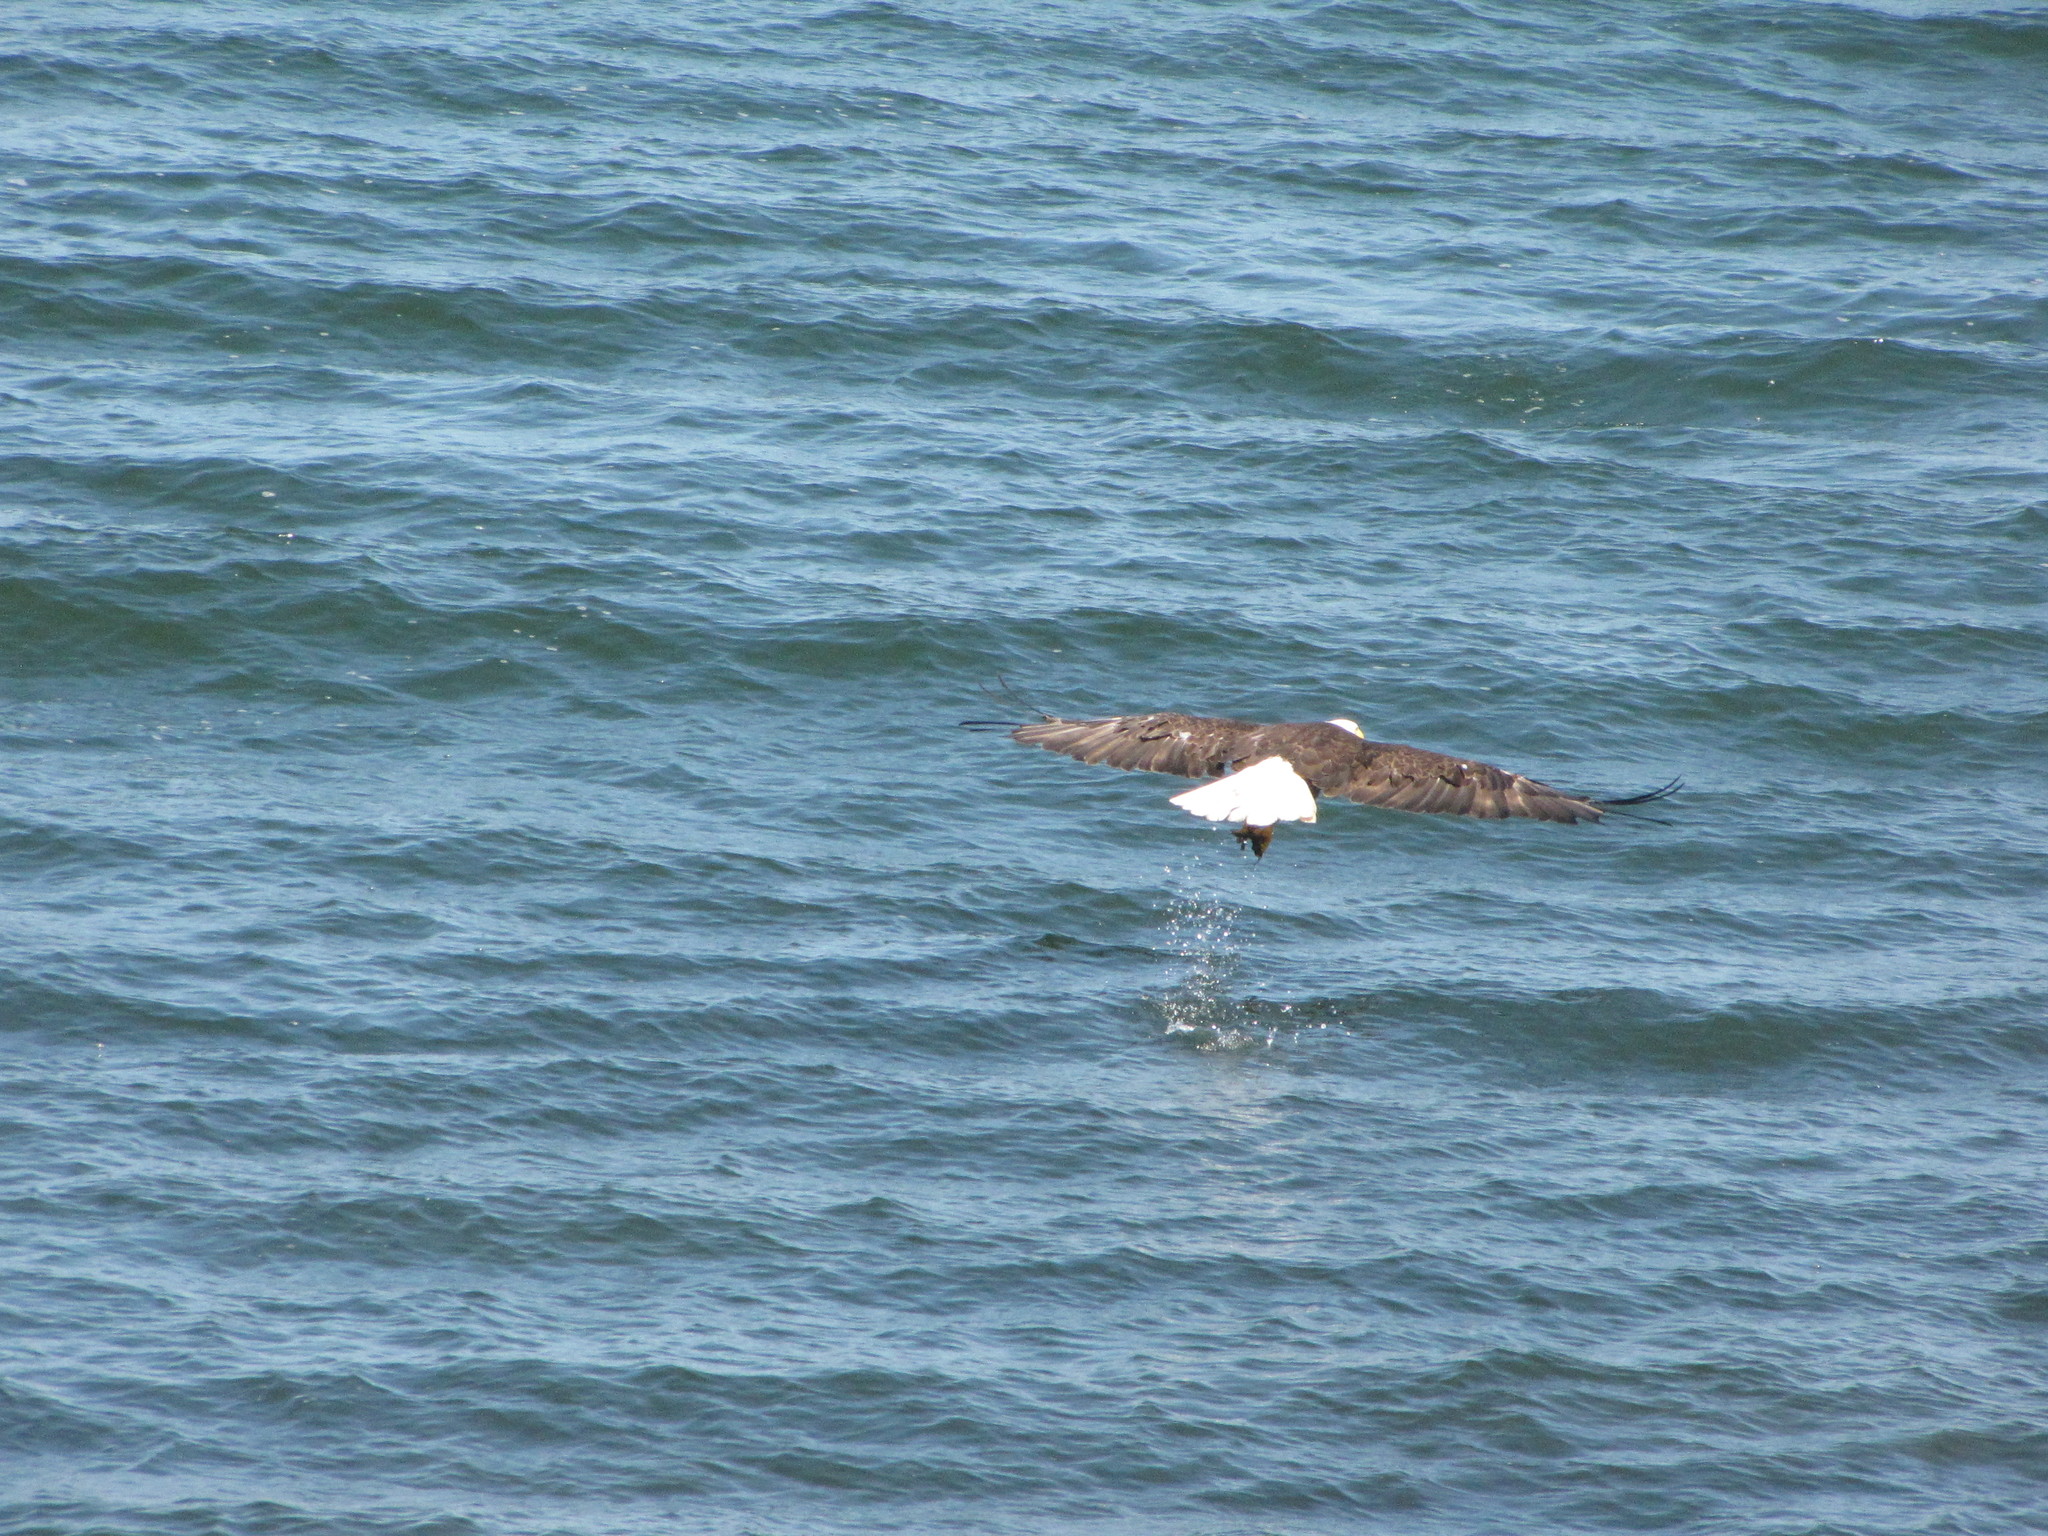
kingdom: Animalia
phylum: Chordata
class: Aves
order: Accipitriformes
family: Accipitridae
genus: Haliaeetus
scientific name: Haliaeetus leucocephalus
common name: Bald eagle
